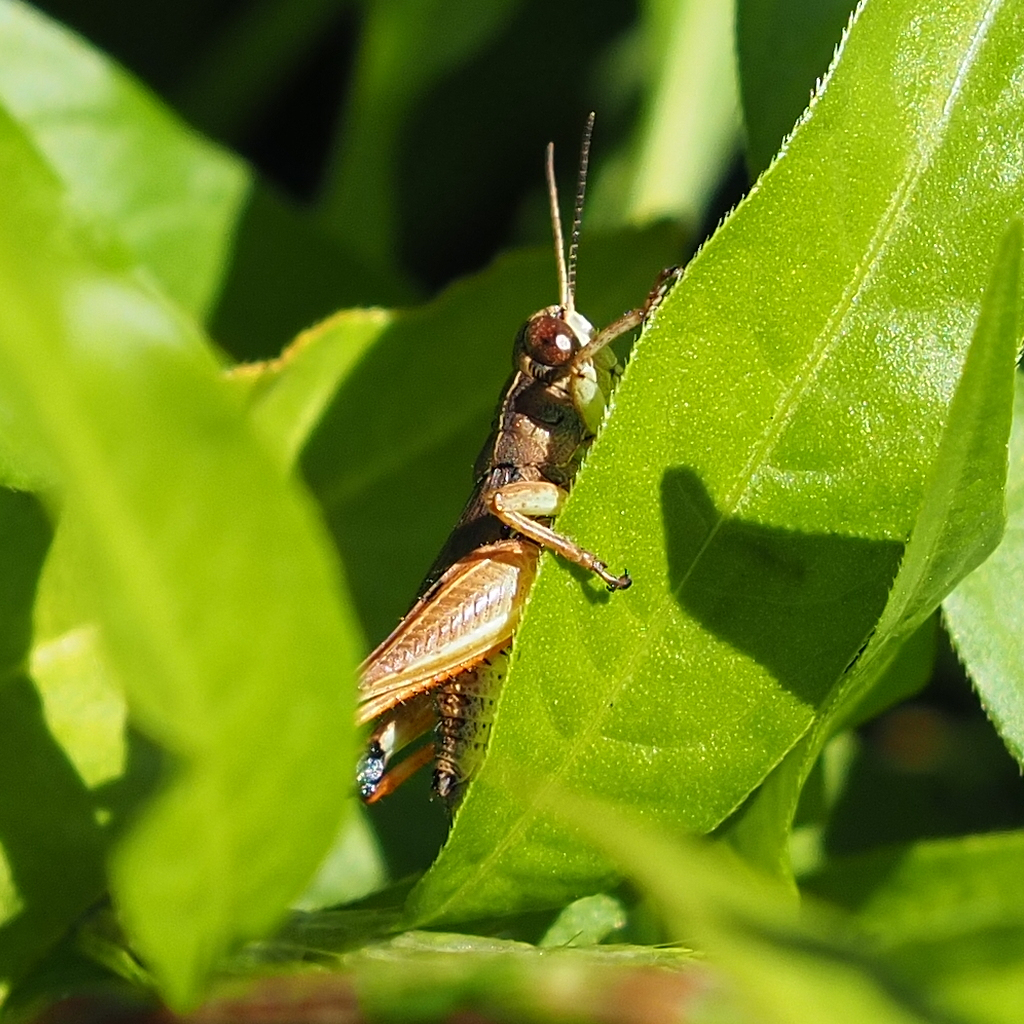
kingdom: Animalia
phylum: Arthropoda
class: Insecta
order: Orthoptera
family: Acrididae
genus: Phaulacridium
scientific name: Phaulacridium vittatum
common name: Wingless grasshopper
